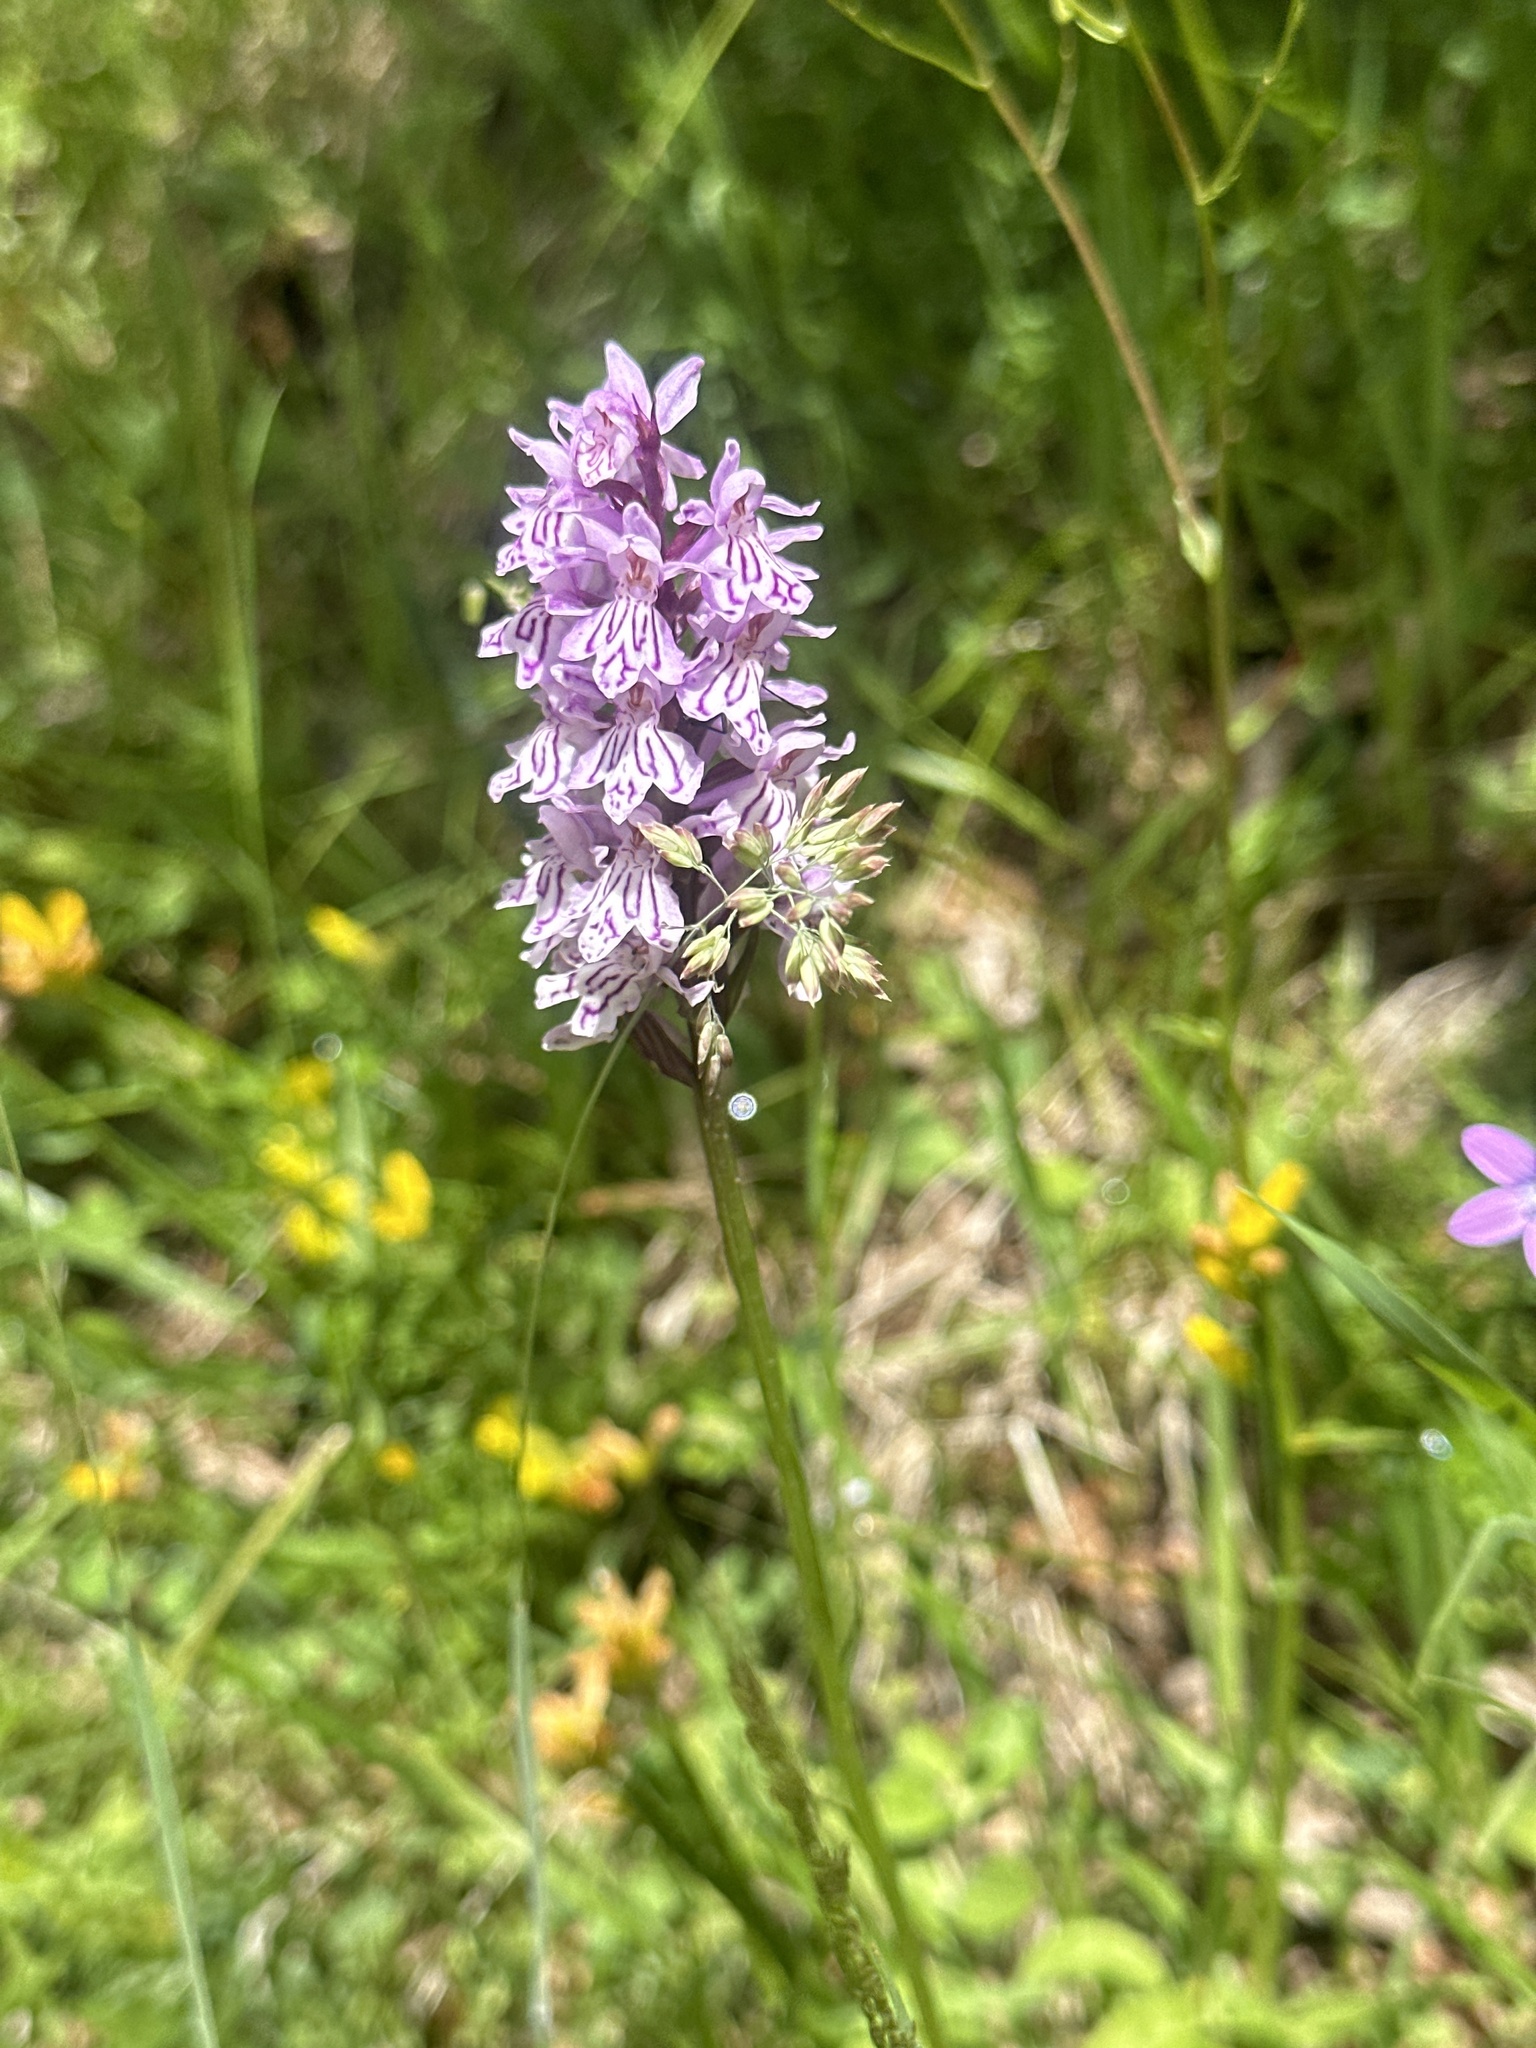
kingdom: Plantae
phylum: Tracheophyta
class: Liliopsida
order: Asparagales
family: Orchidaceae
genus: Dactylorhiza
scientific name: Dactylorhiza maculata
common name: Heath spotted-orchid
